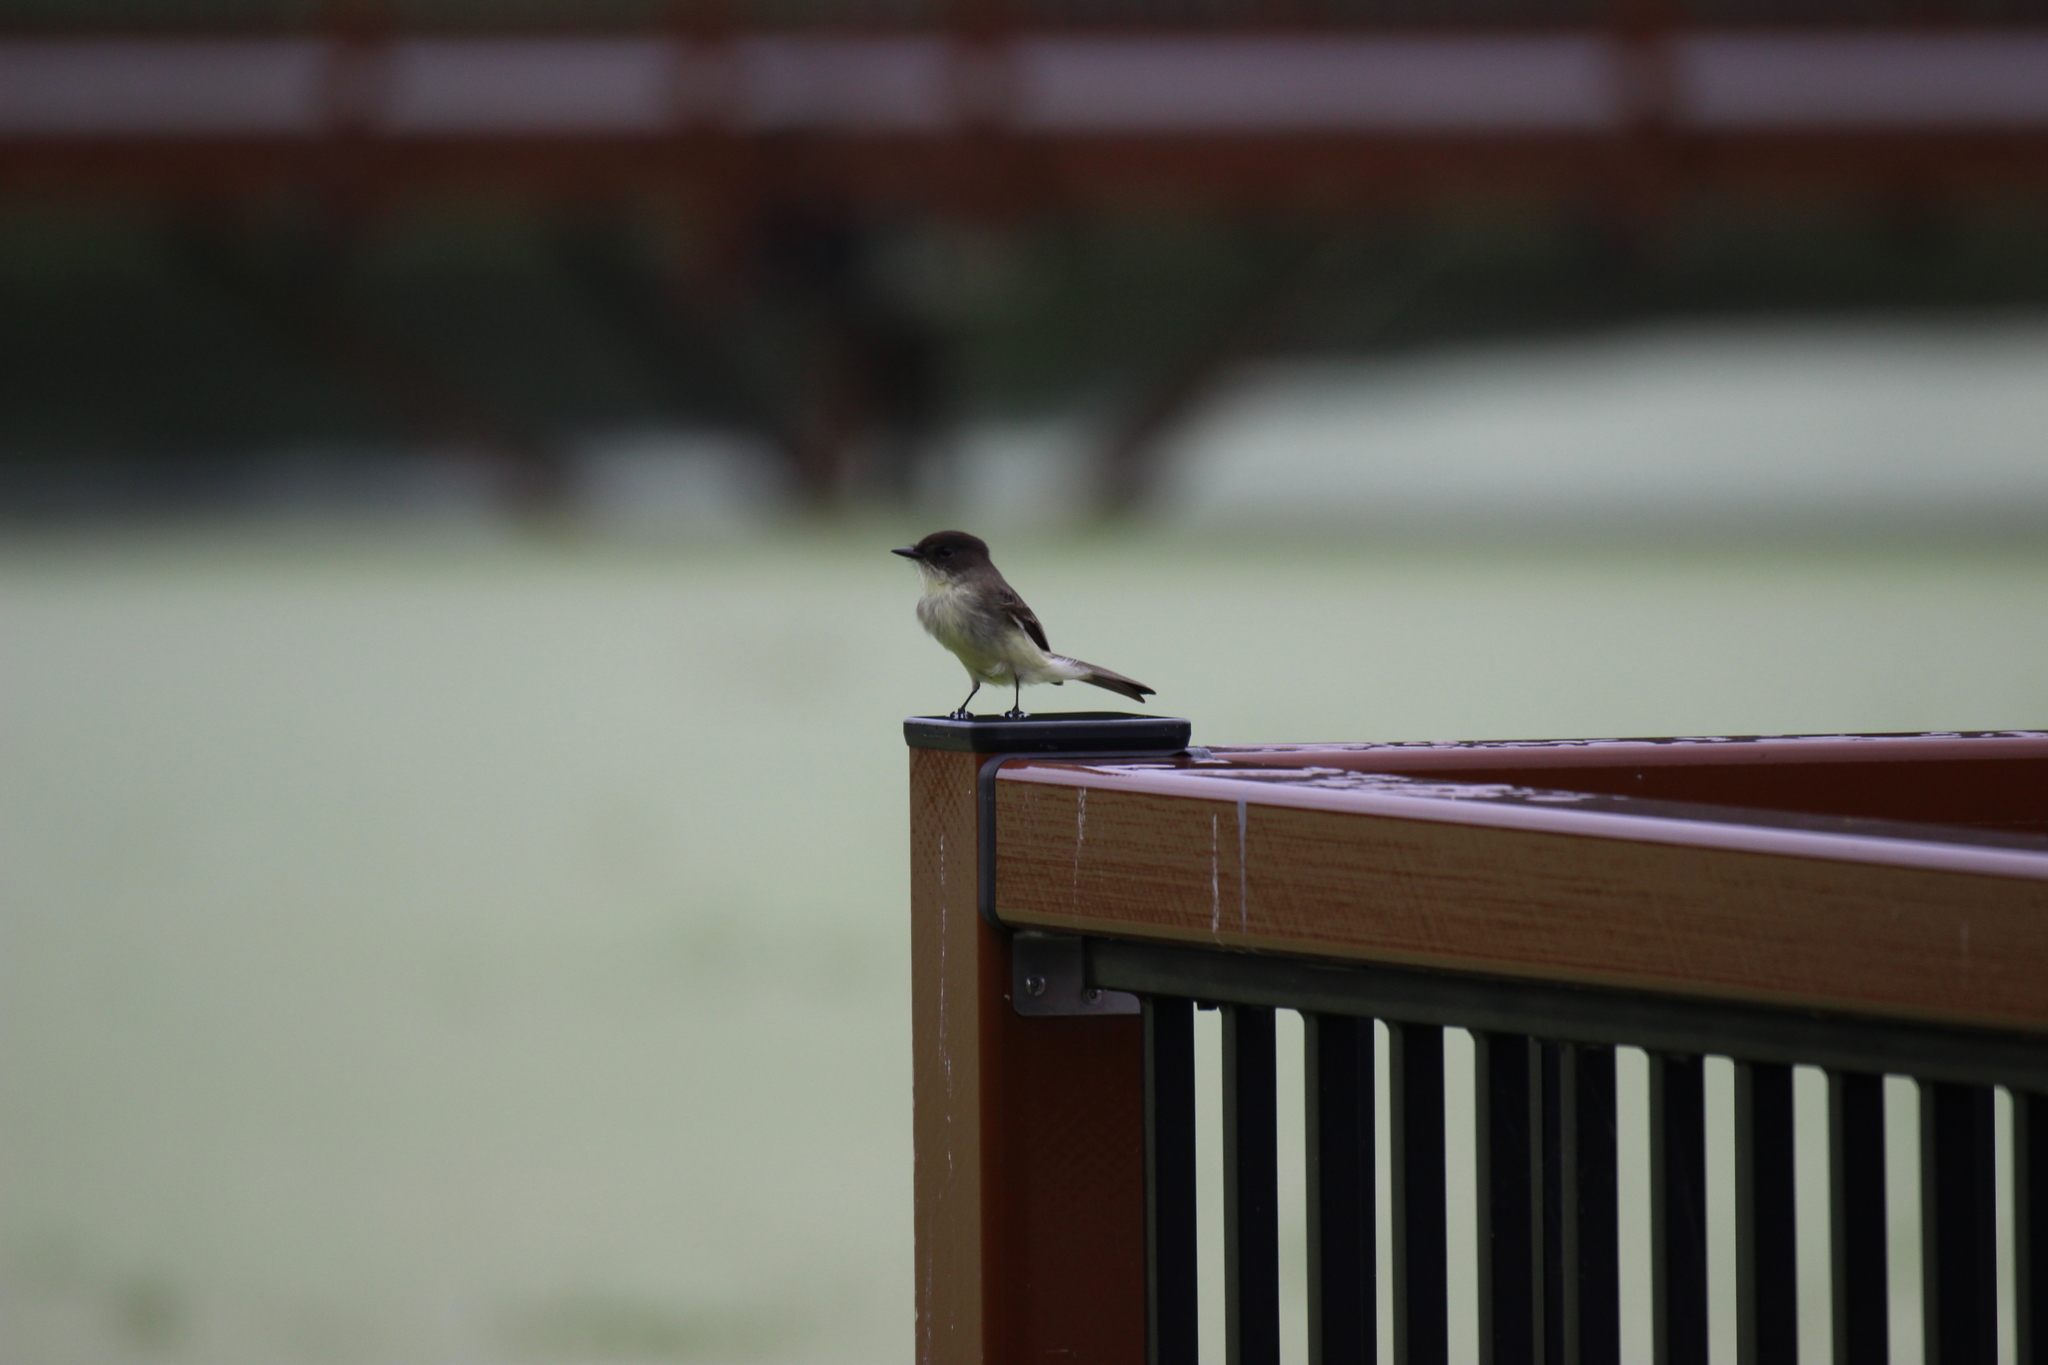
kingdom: Animalia
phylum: Chordata
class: Aves
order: Passeriformes
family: Tyrannidae
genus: Sayornis
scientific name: Sayornis phoebe
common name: Eastern phoebe
